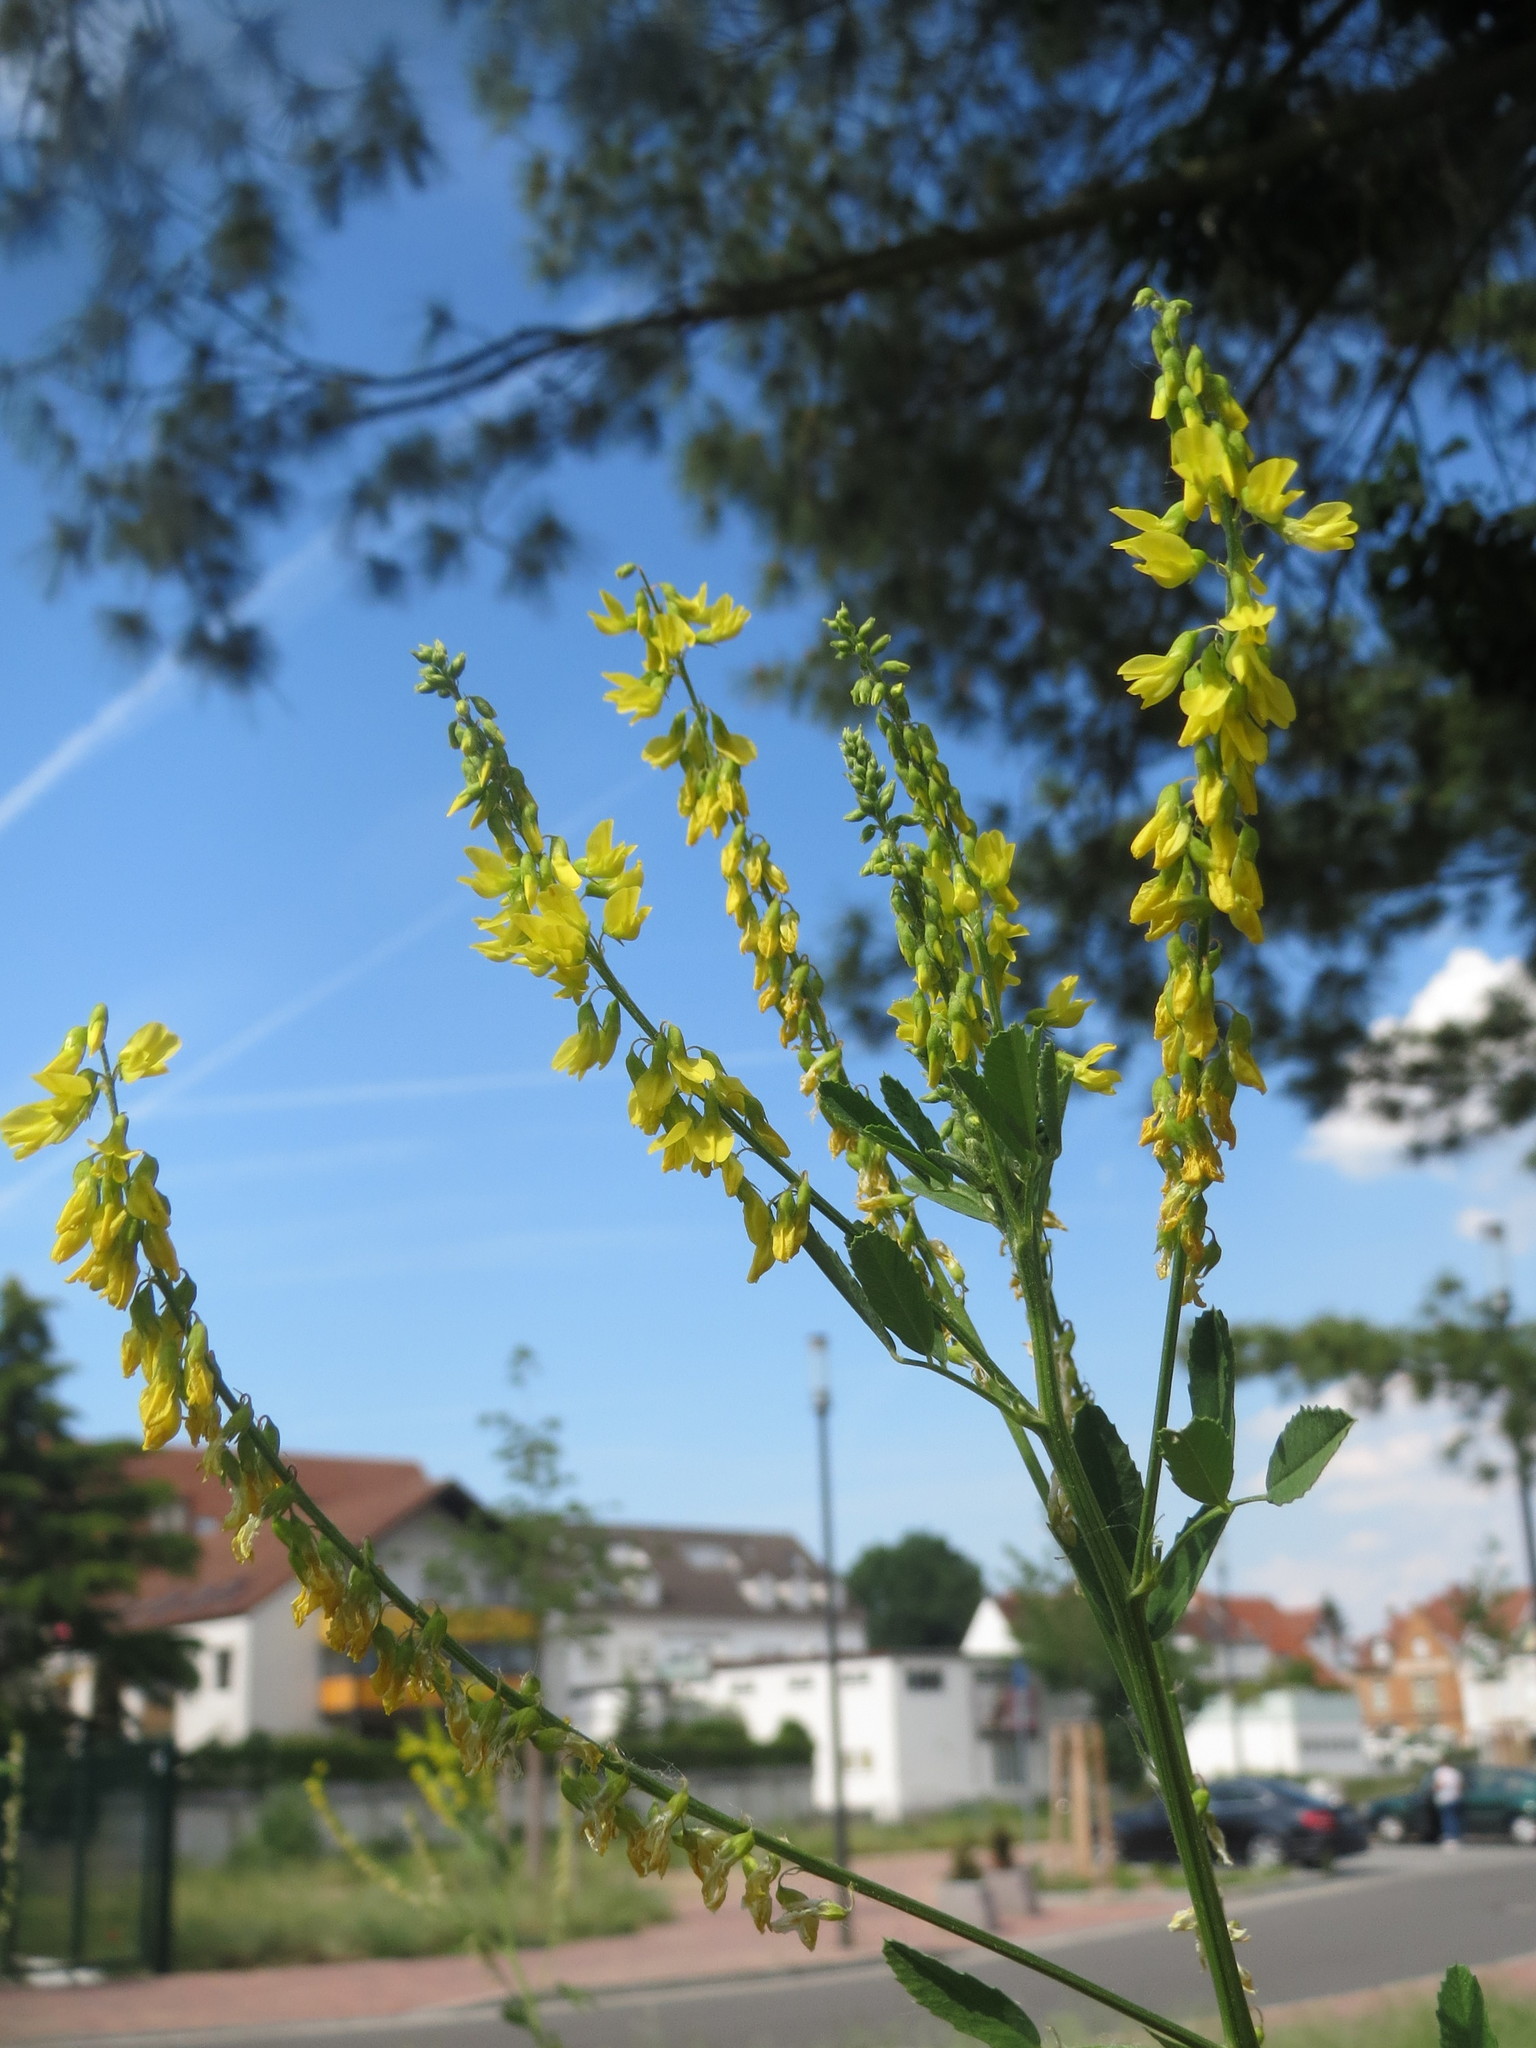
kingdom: Plantae
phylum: Tracheophyta
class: Magnoliopsida
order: Fabales
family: Fabaceae
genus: Melilotus
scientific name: Melilotus officinalis
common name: Sweetclover
